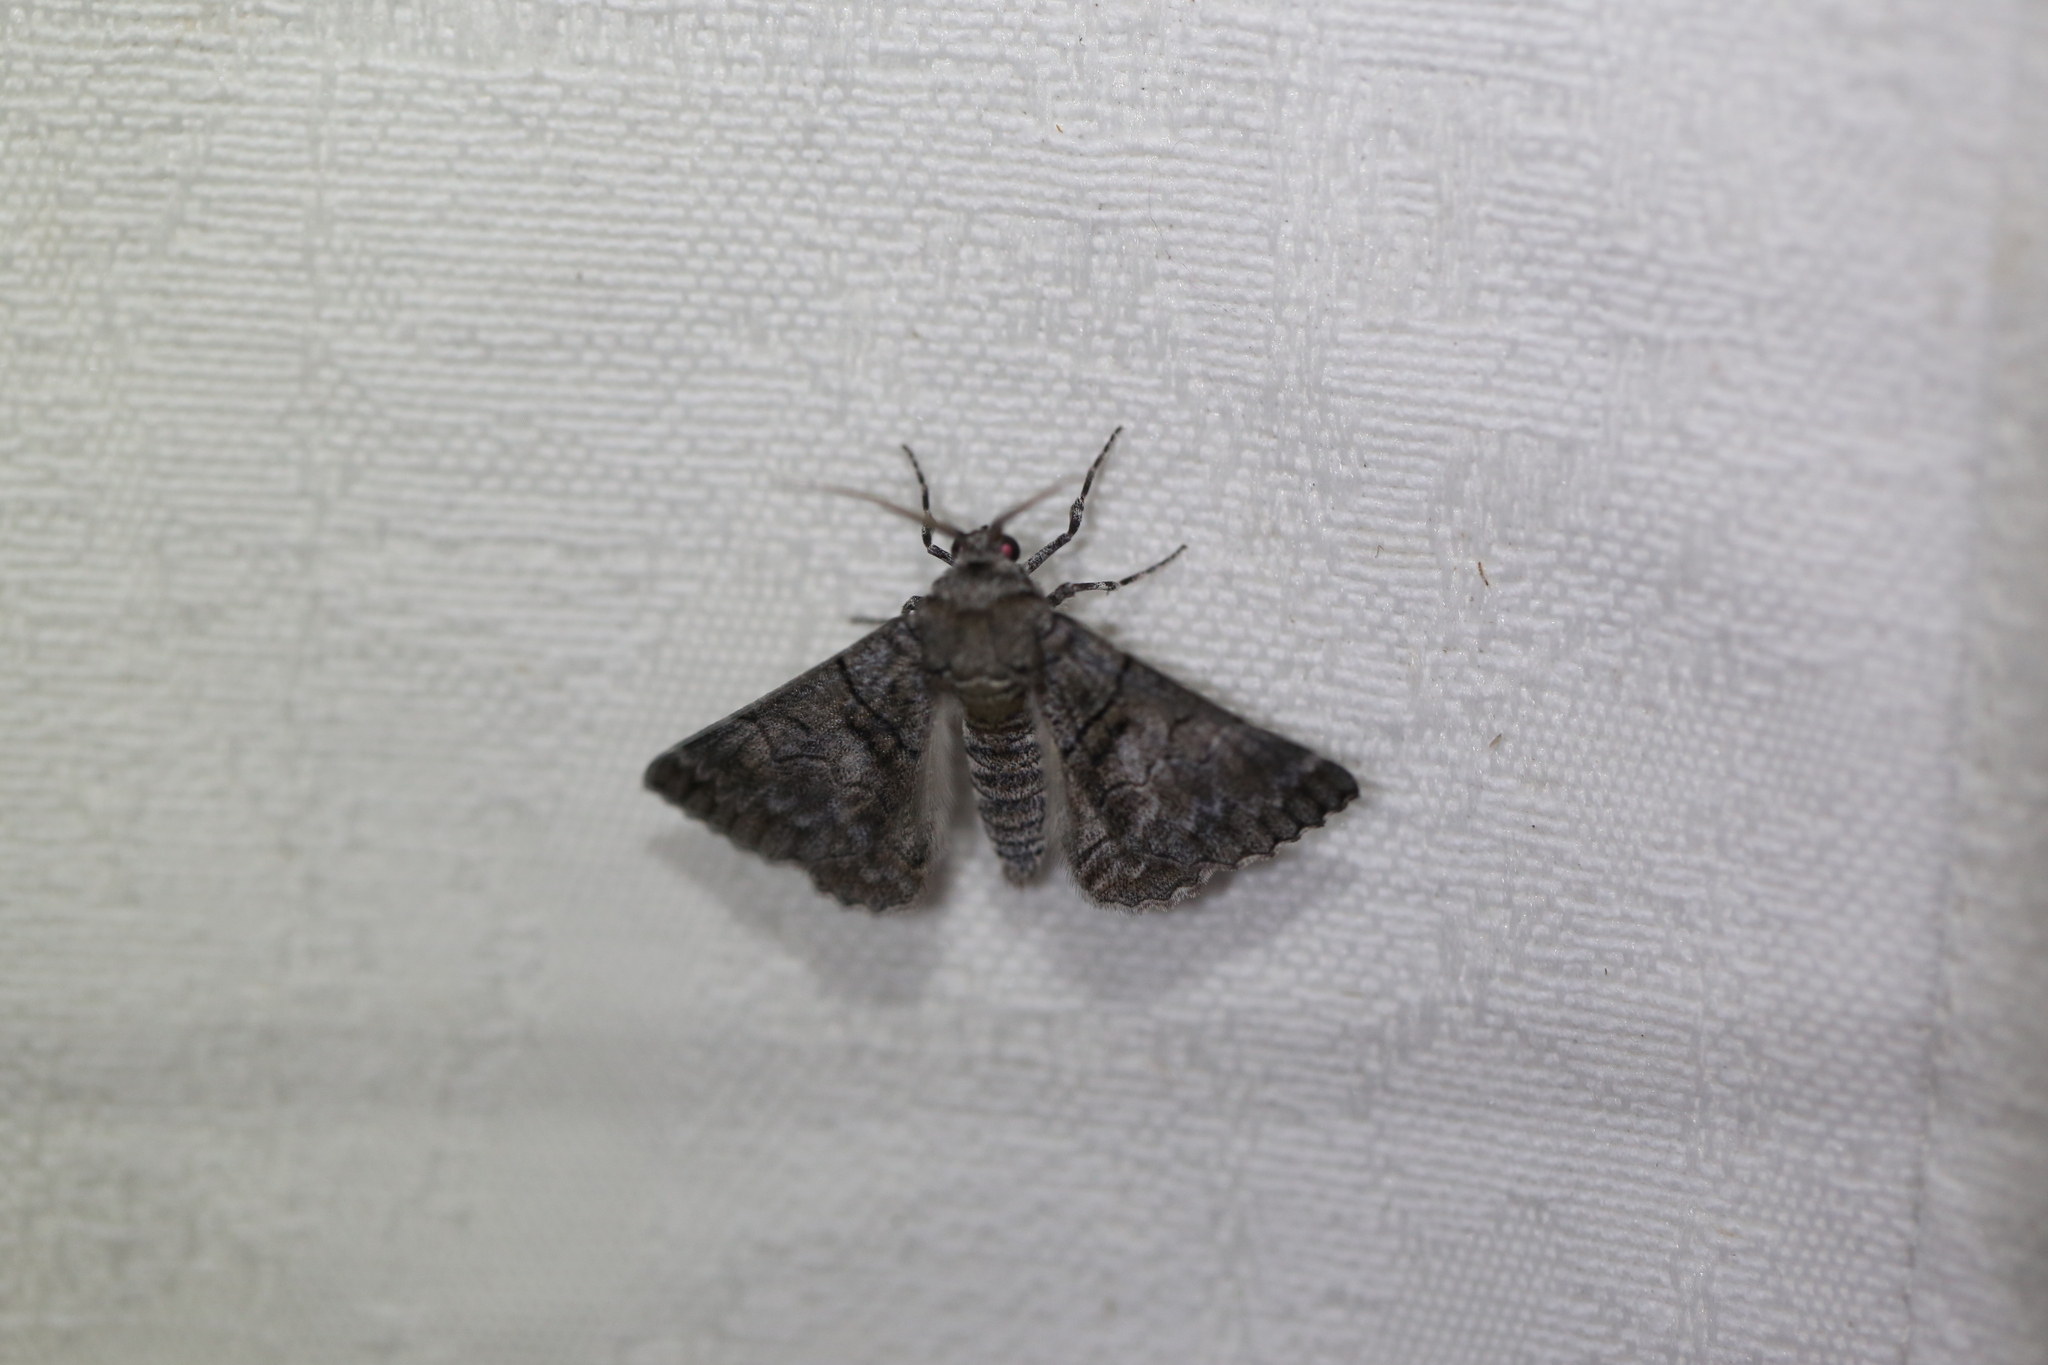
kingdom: Animalia
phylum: Arthropoda
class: Insecta
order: Lepidoptera
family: Geometridae
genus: Hypobapta
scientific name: Hypobapta barnardi
